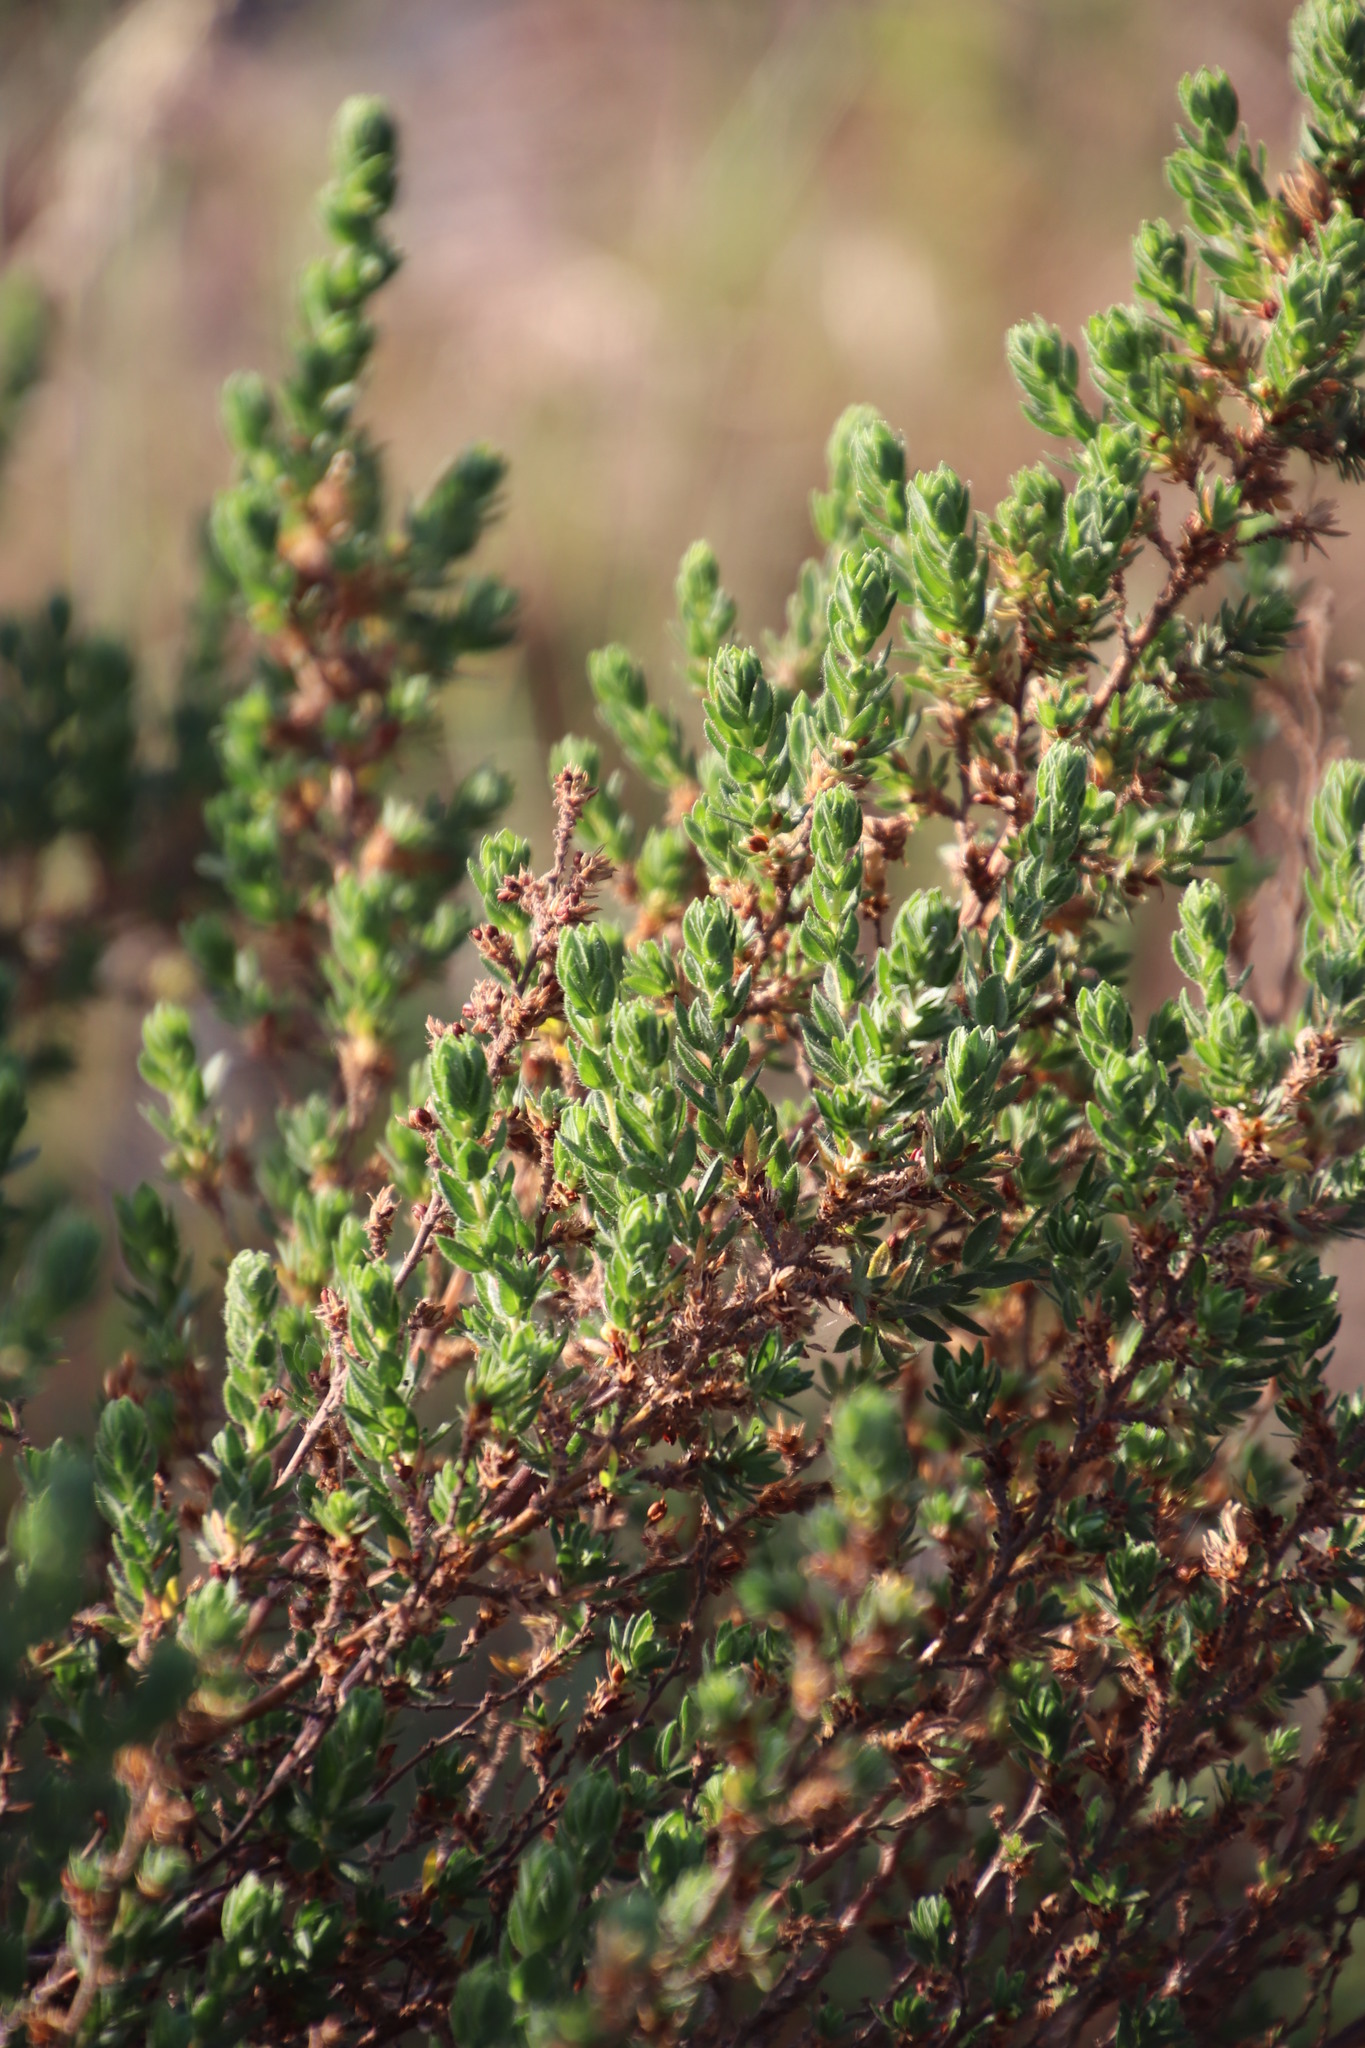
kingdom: Plantae
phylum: Tracheophyta
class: Magnoliopsida
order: Rosales
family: Rosaceae
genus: Cliffortia
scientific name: Cliffortia polygonifolia
